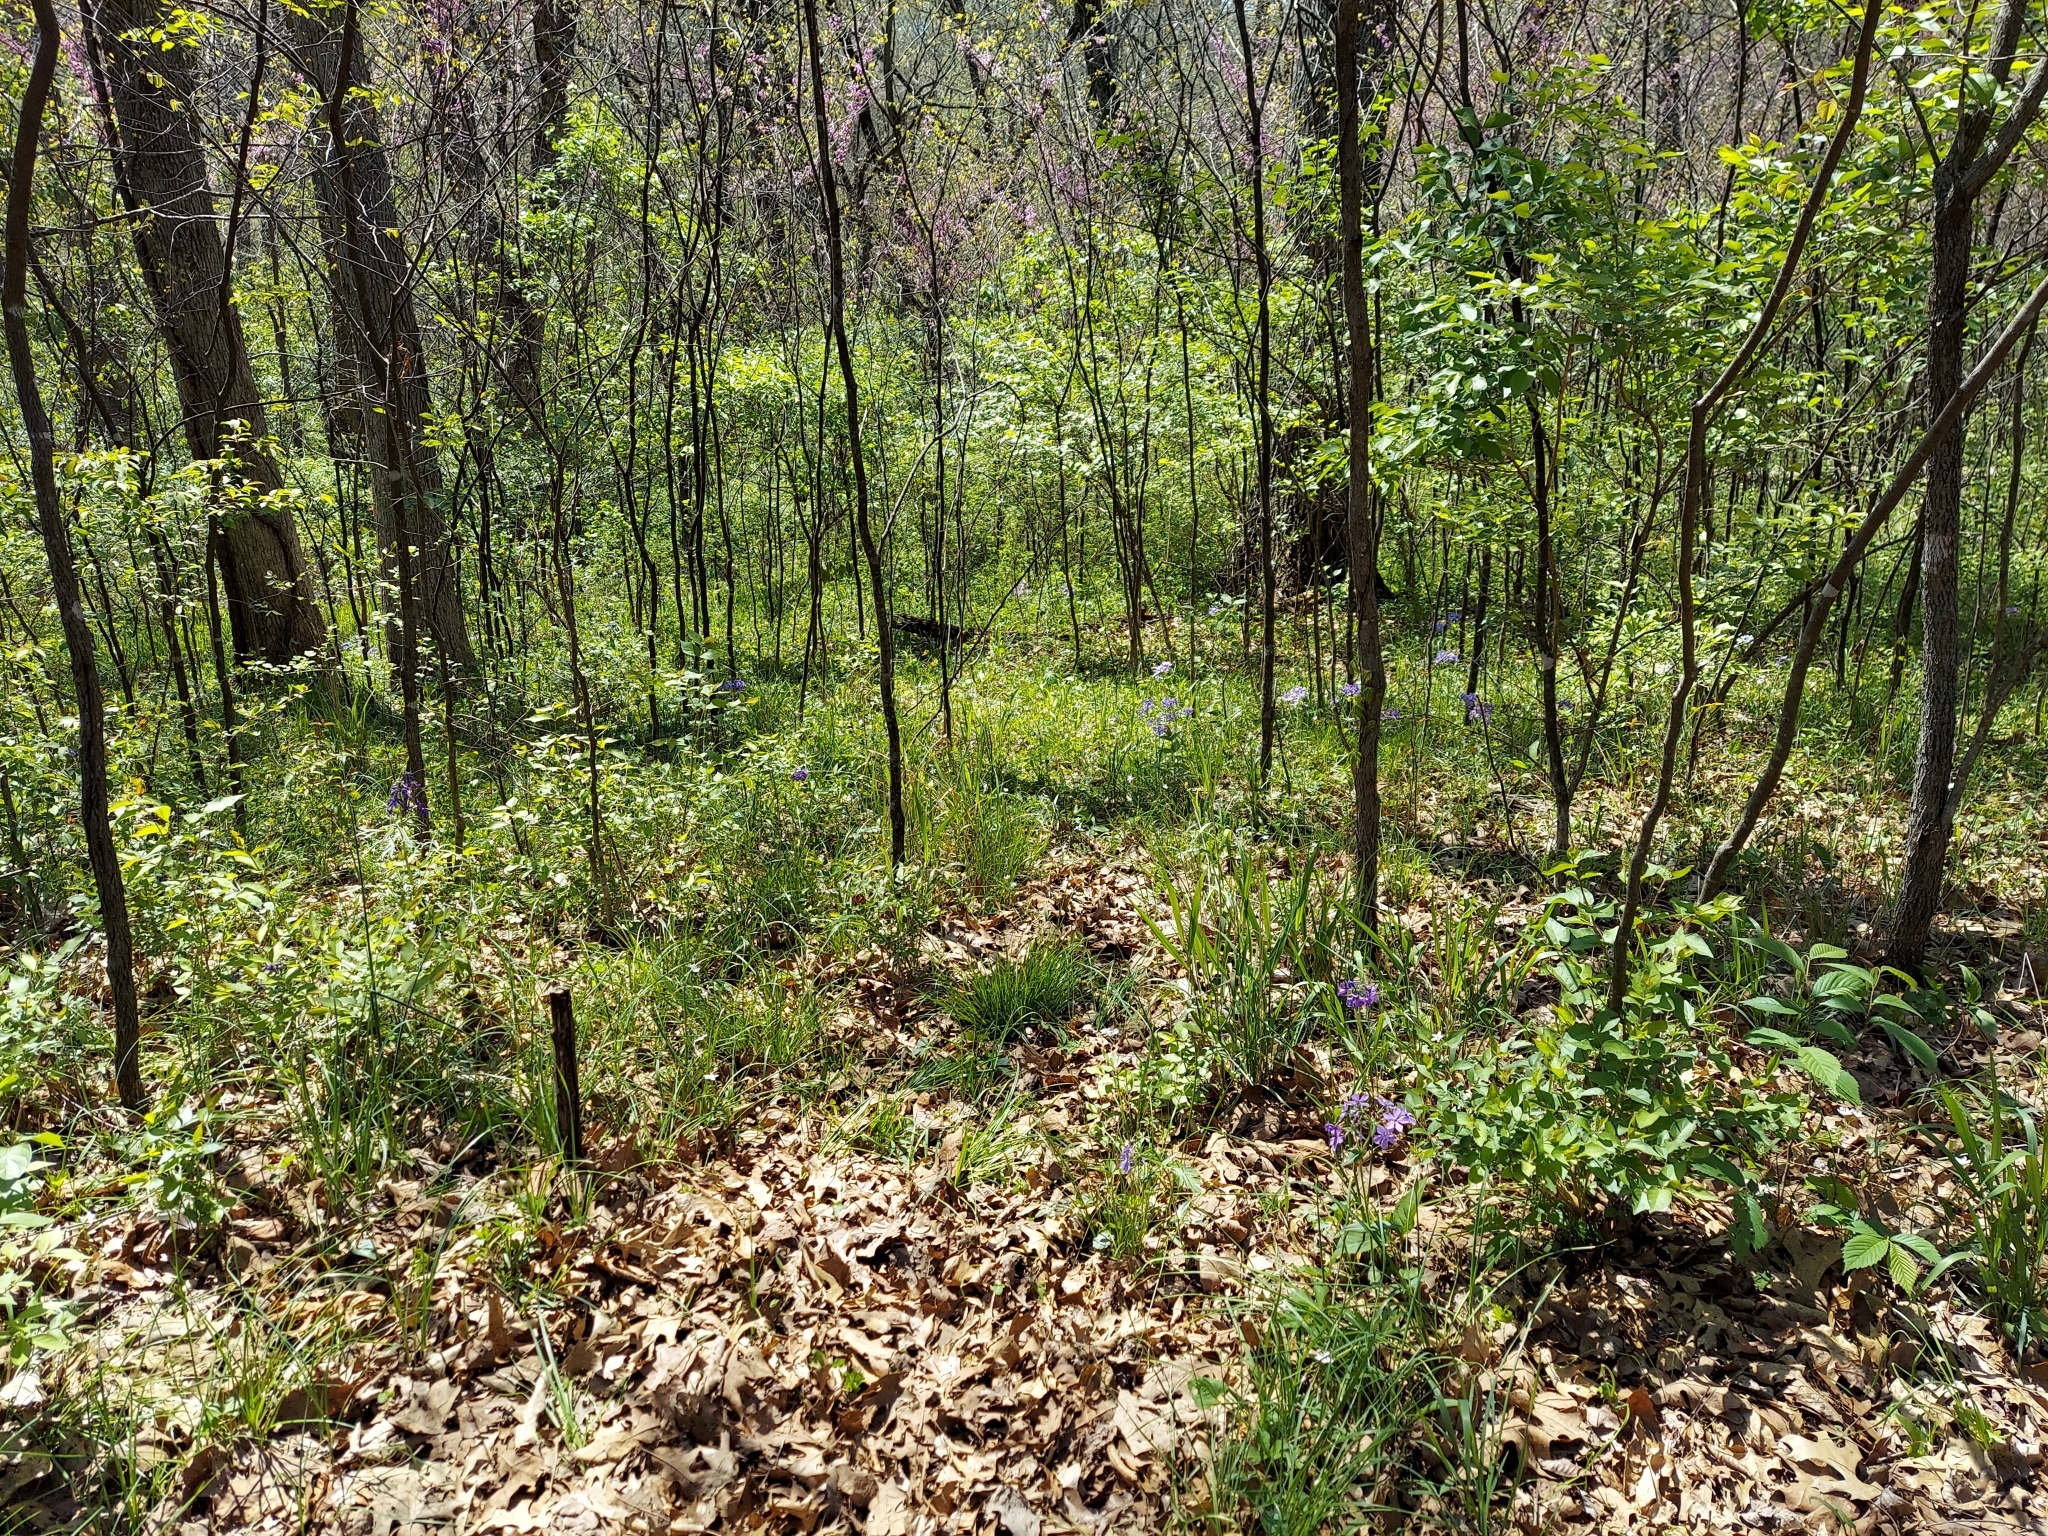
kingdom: Plantae
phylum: Tracheophyta
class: Magnoliopsida
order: Ericales
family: Polemoniaceae
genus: Phlox
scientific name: Phlox divaricata
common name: Blue phlox
